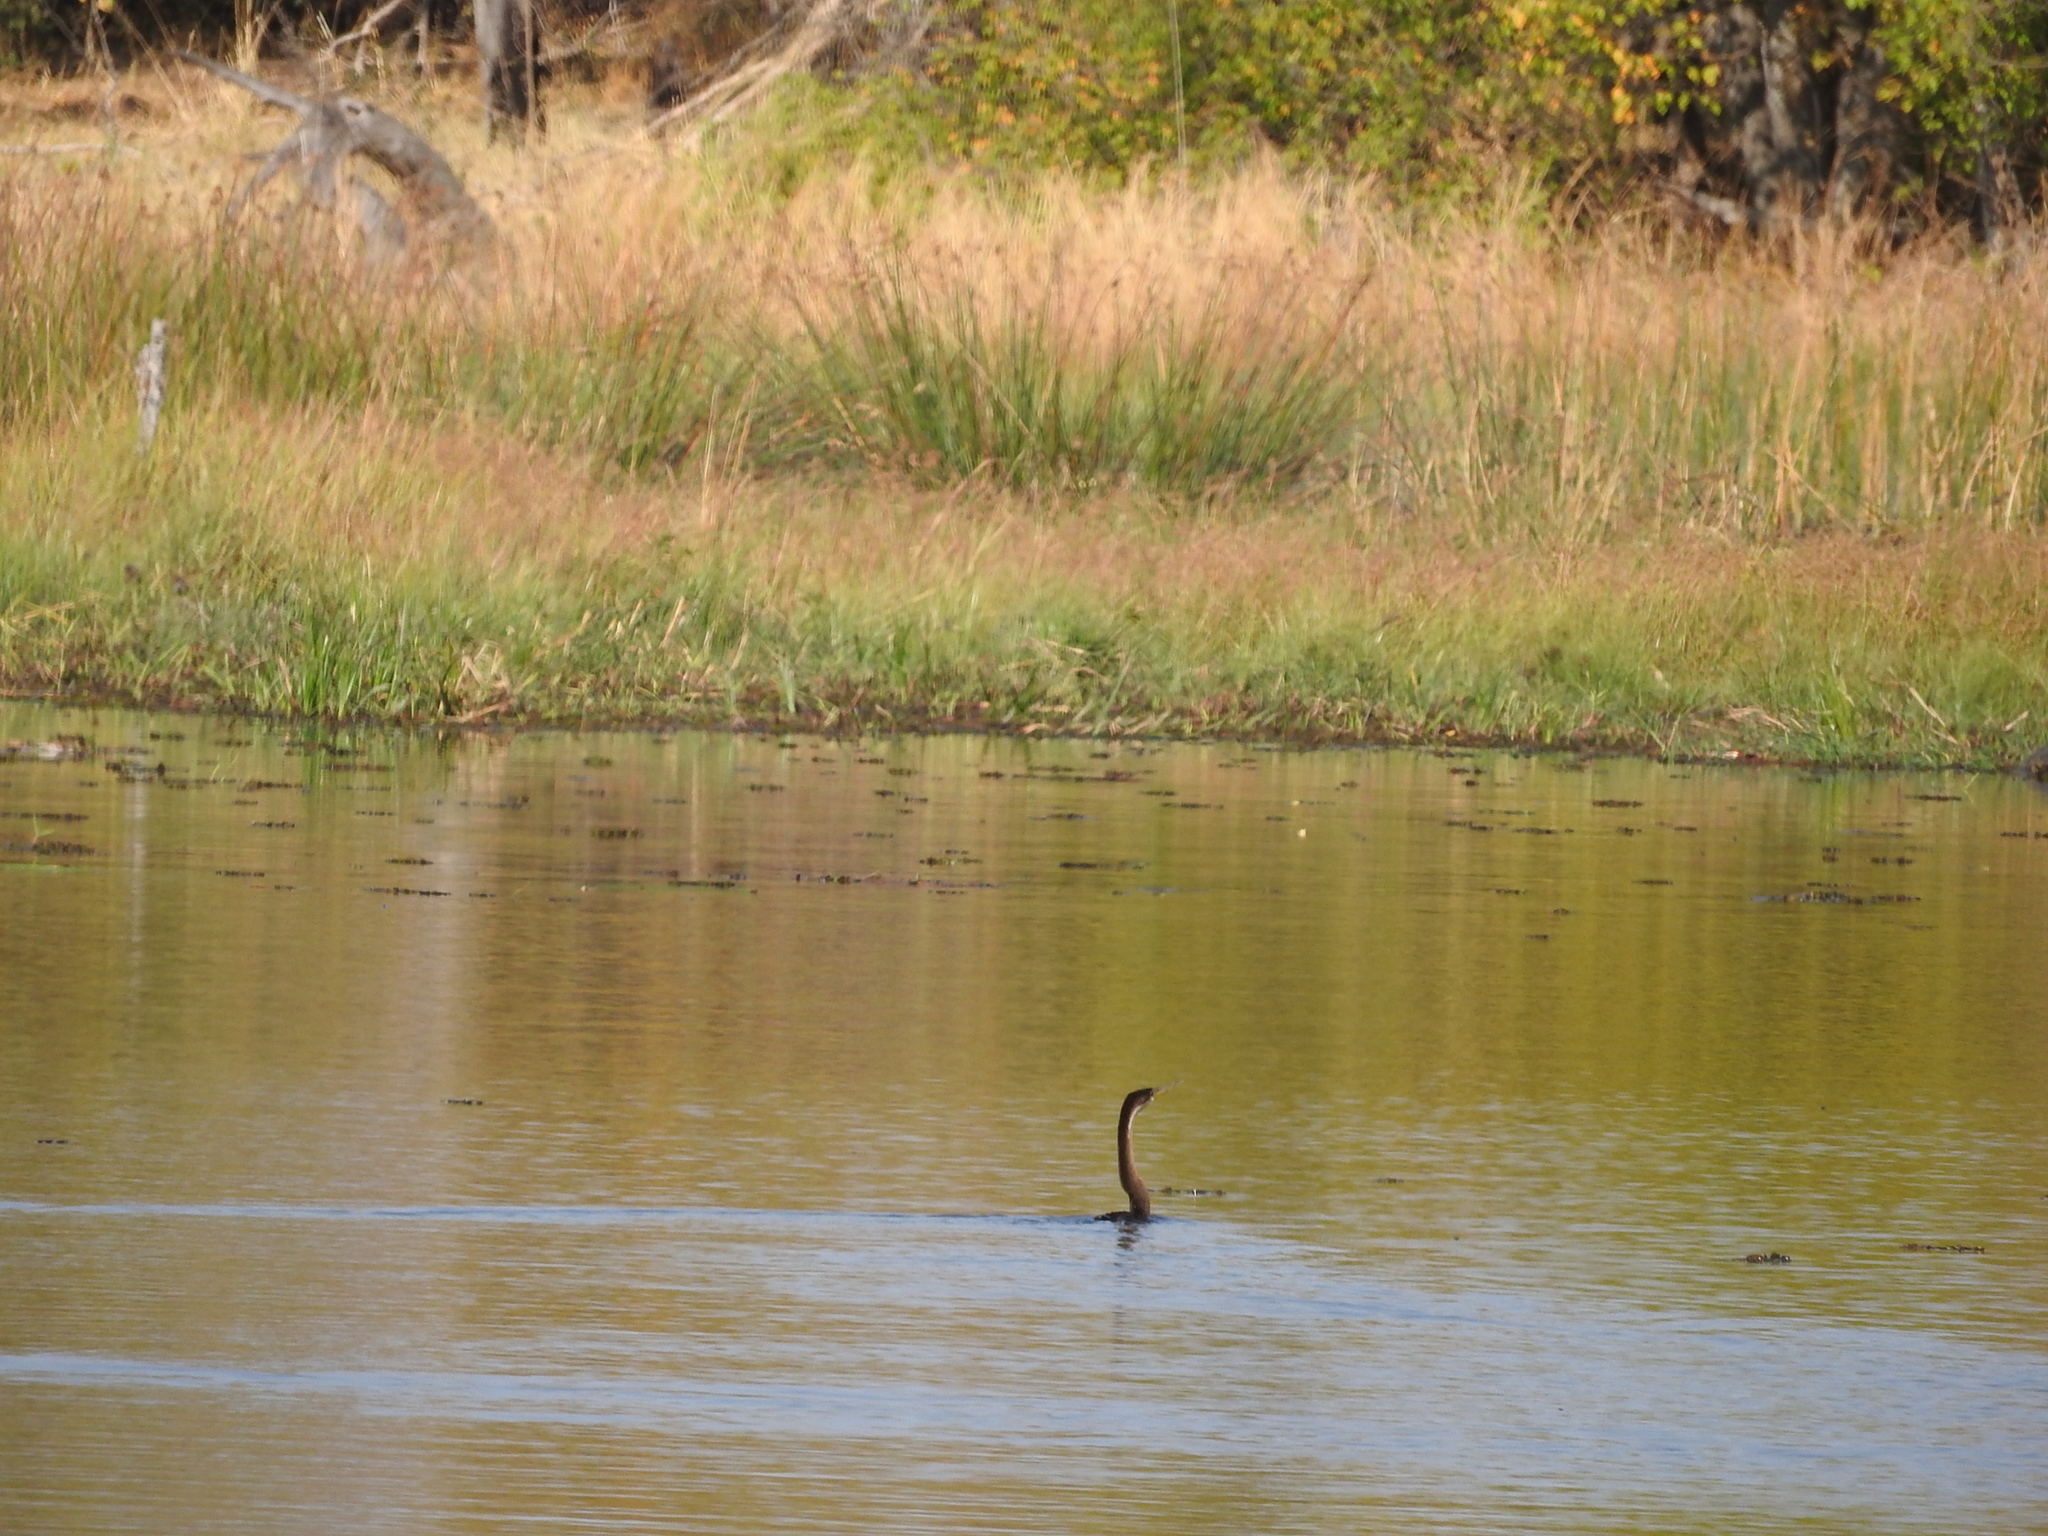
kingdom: Animalia
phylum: Chordata
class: Aves
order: Suliformes
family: Anhingidae
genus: Anhinga
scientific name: Anhinga rufa
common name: African darter
